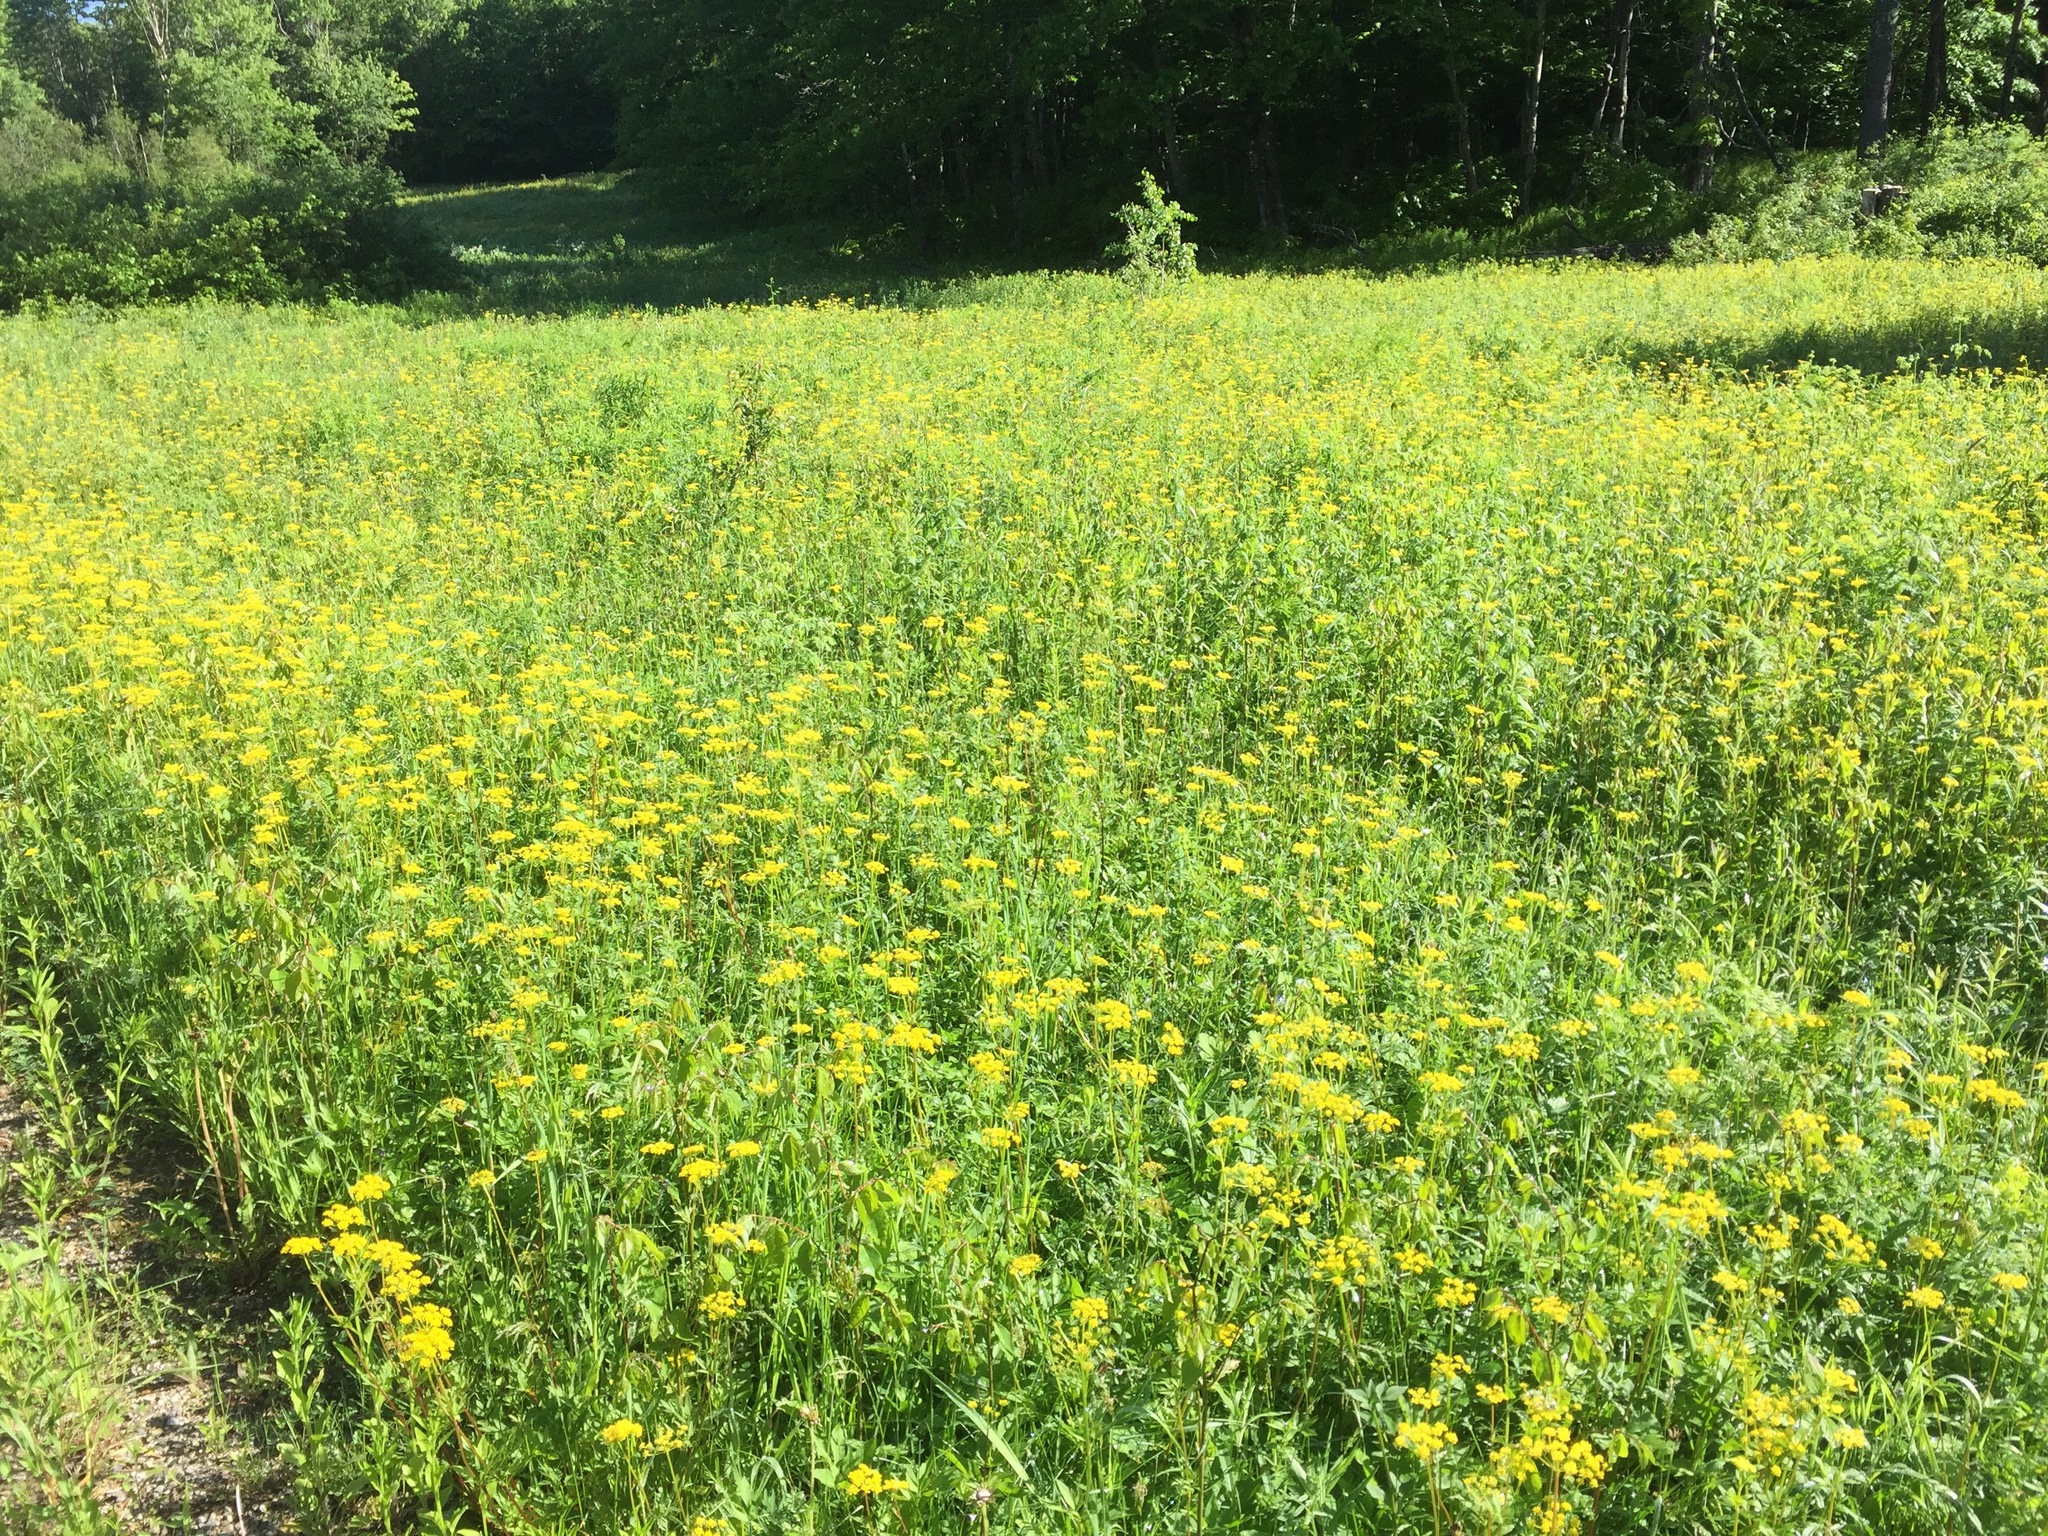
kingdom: Plantae
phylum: Tracheophyta
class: Magnoliopsida
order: Apiales
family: Apiaceae
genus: Zizia
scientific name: Zizia aurea
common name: Golden alexanders
